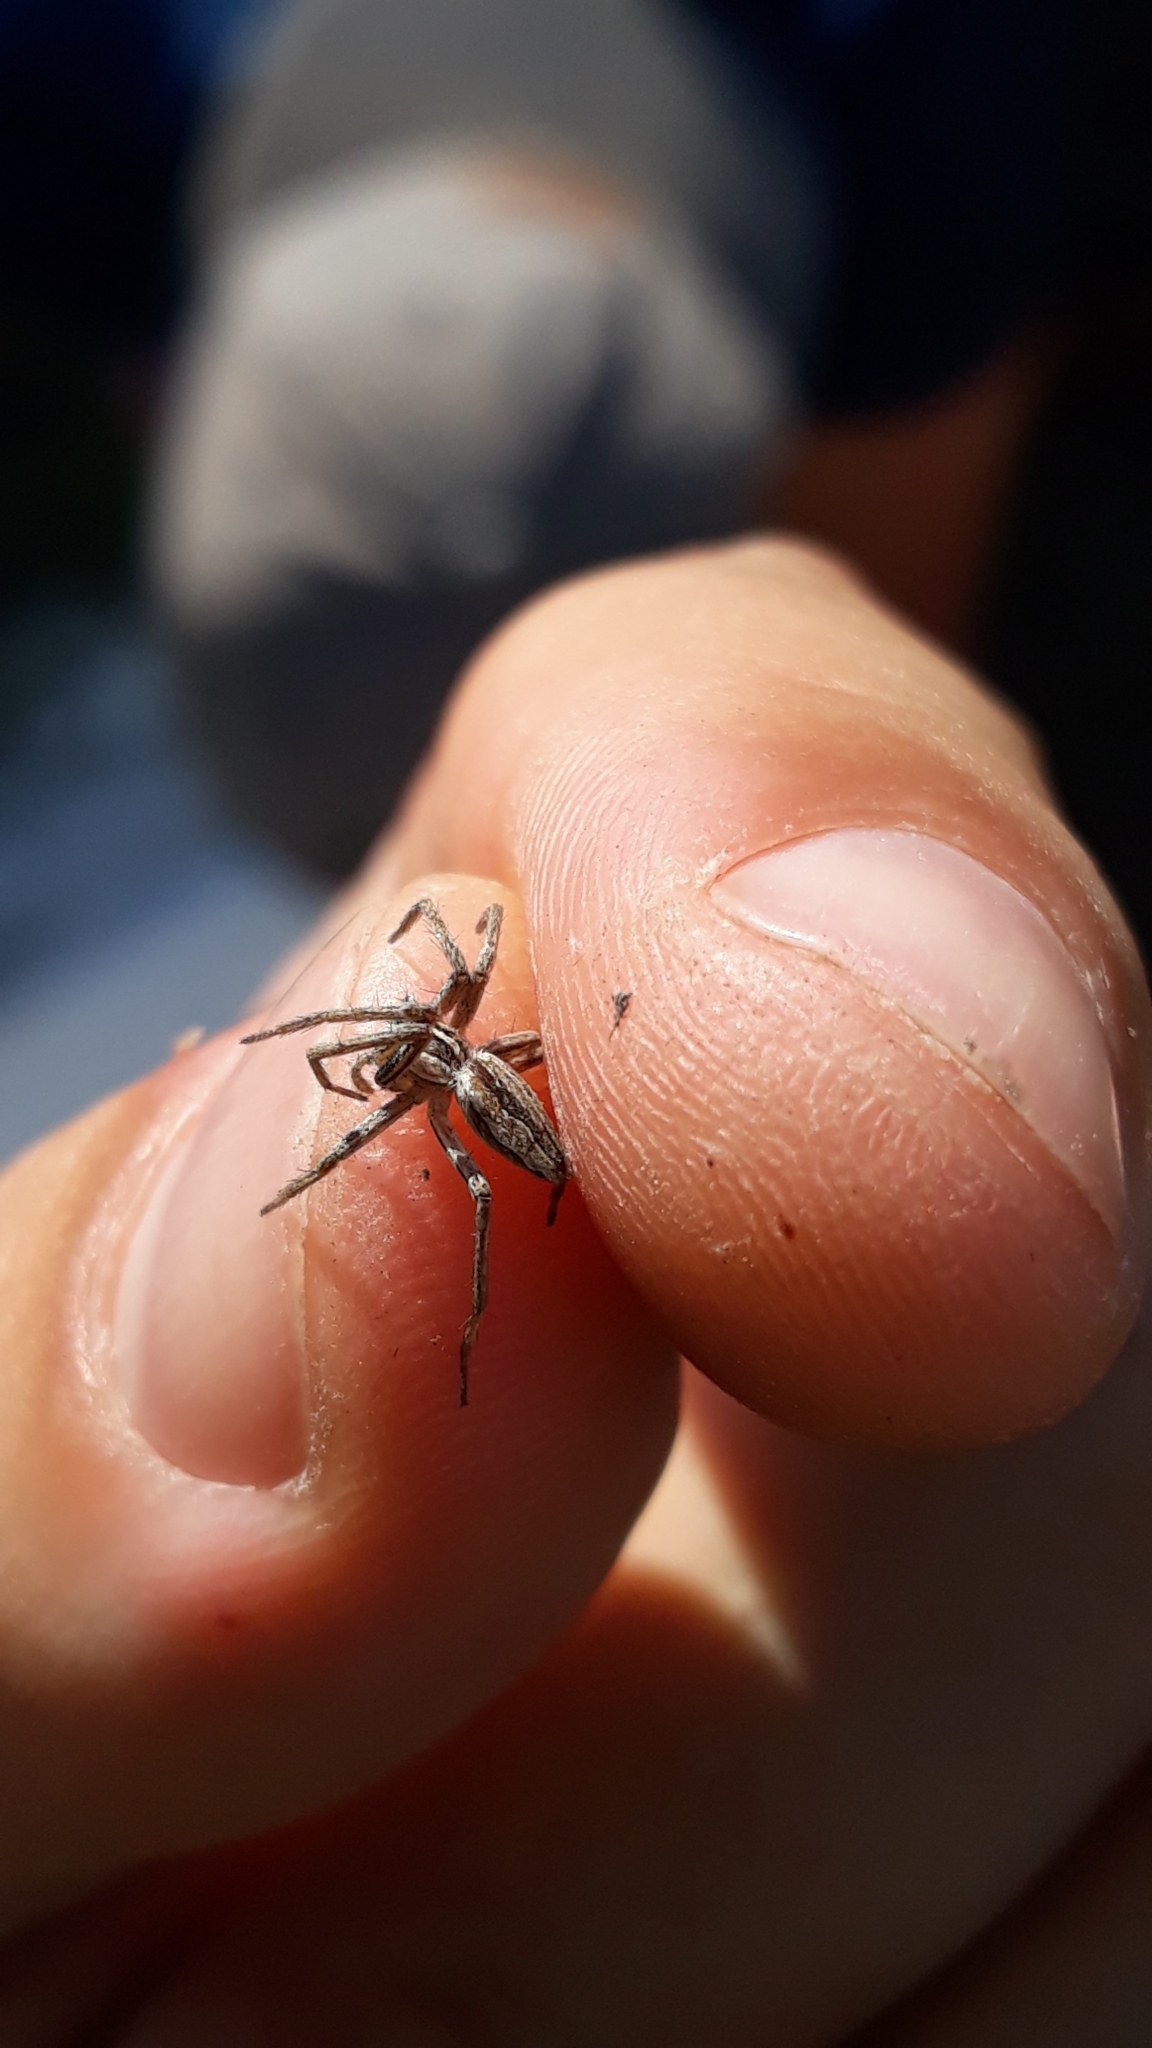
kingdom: Animalia
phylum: Arthropoda
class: Arachnida
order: Araneae
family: Pisauridae
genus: Pisaura
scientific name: Pisaura mirabilis
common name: Tent spider
